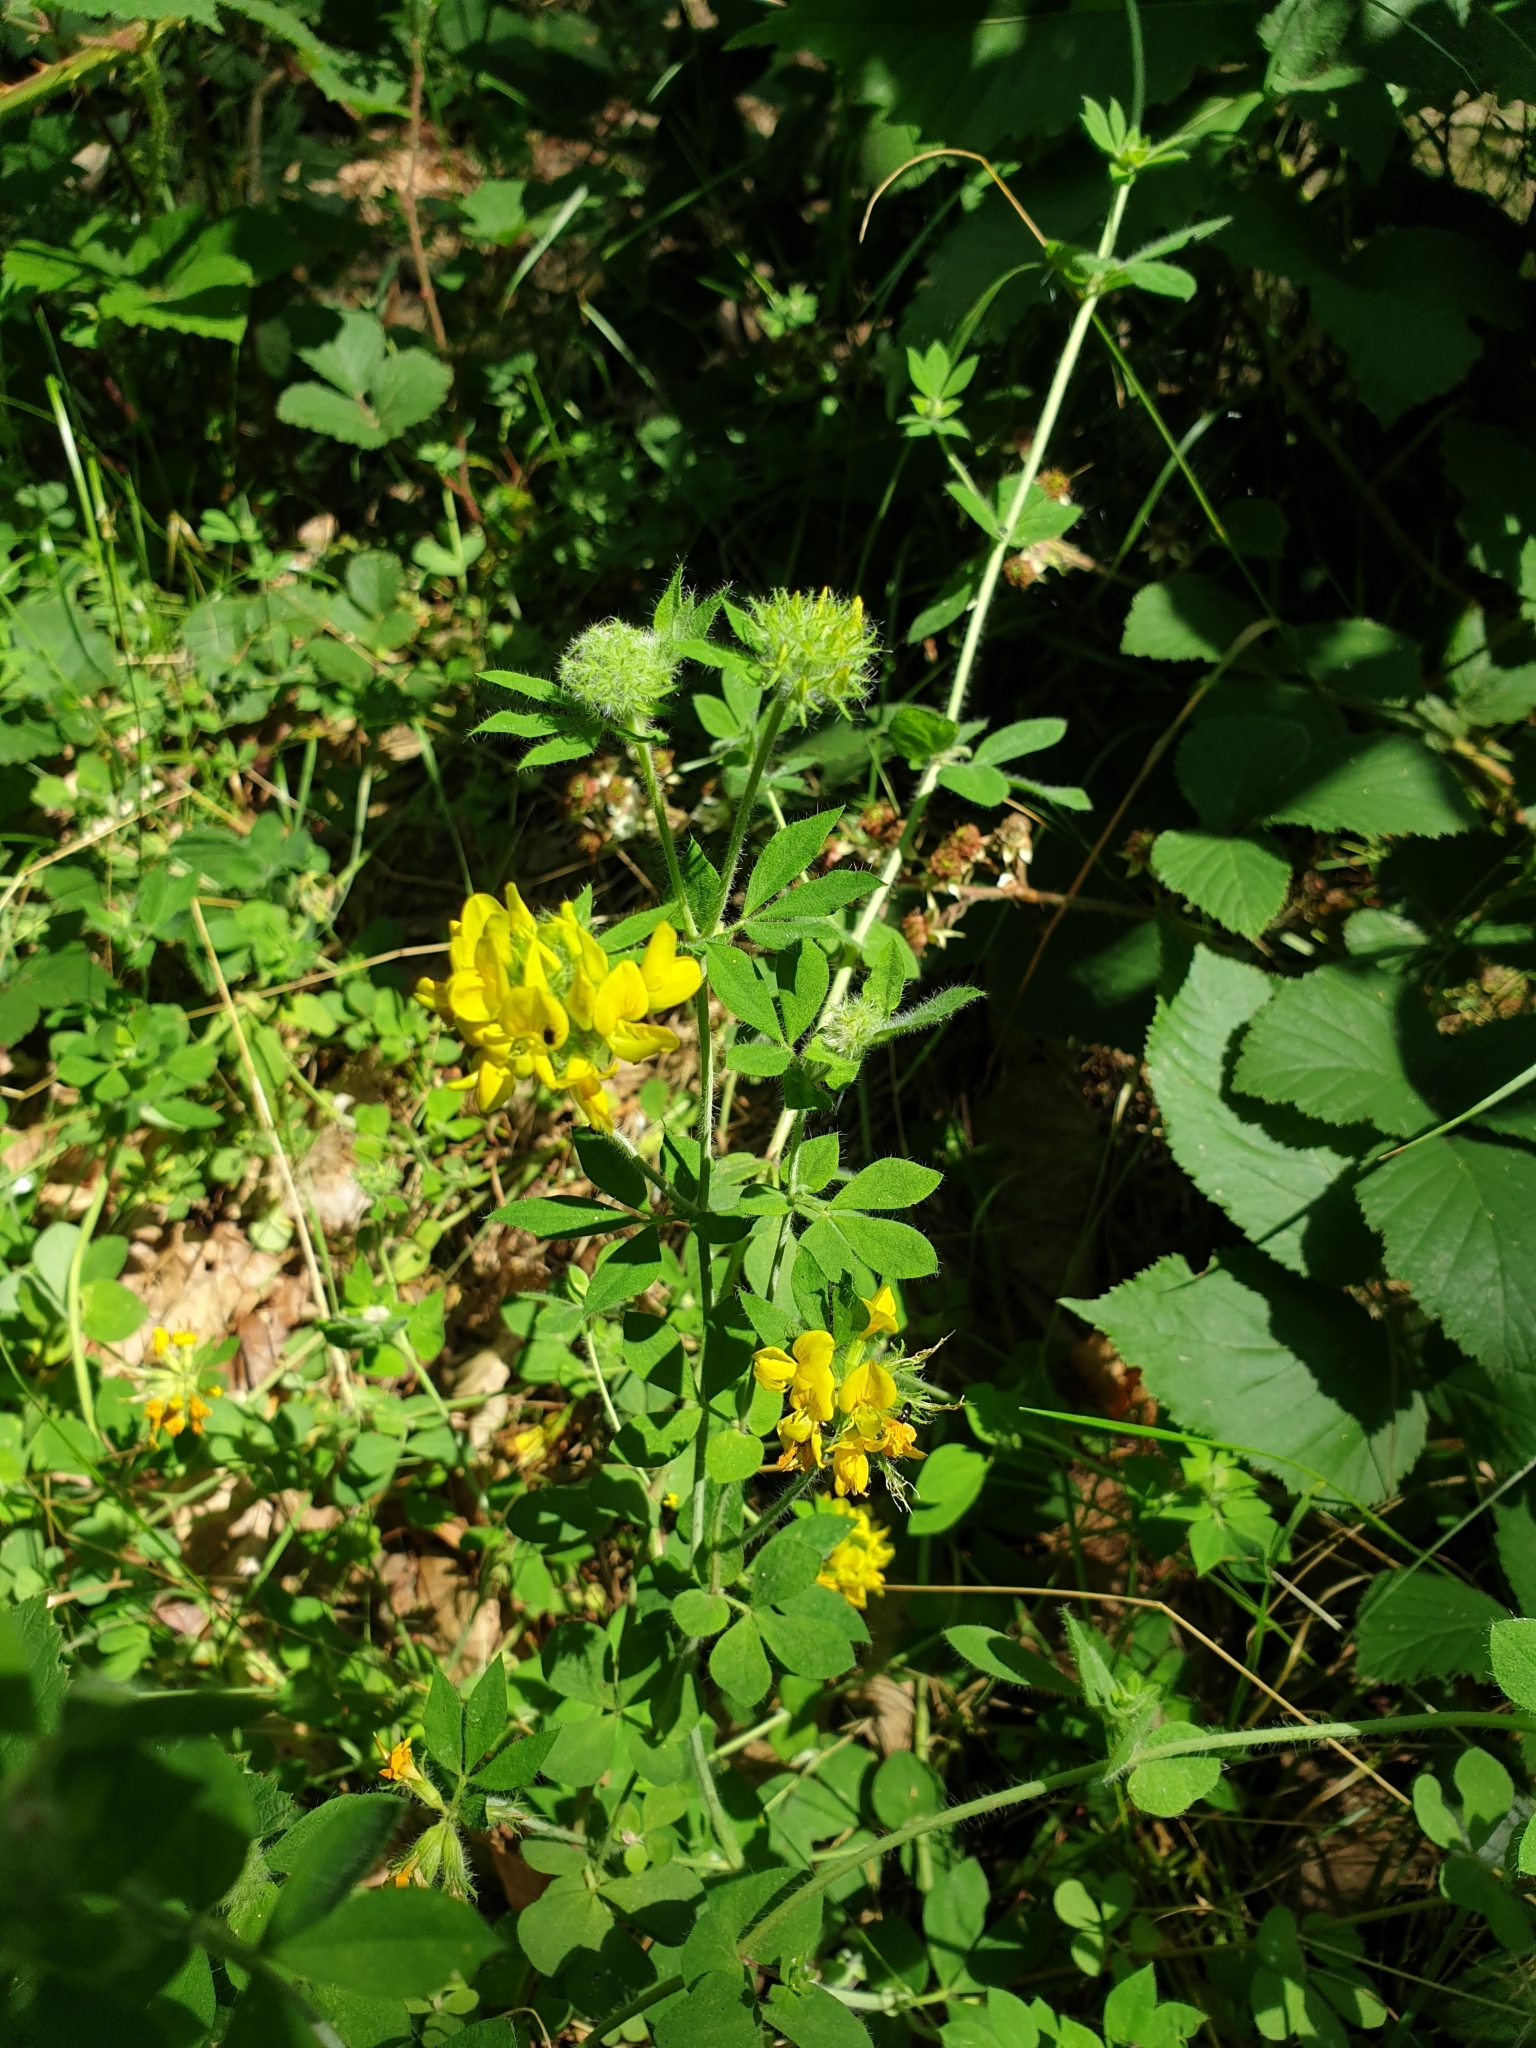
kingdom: Plantae
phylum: Tracheophyta
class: Magnoliopsida
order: Fabales
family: Fabaceae
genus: Lotus
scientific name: Lotus pedunculatus
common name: Greater birdsfoot-trefoil
